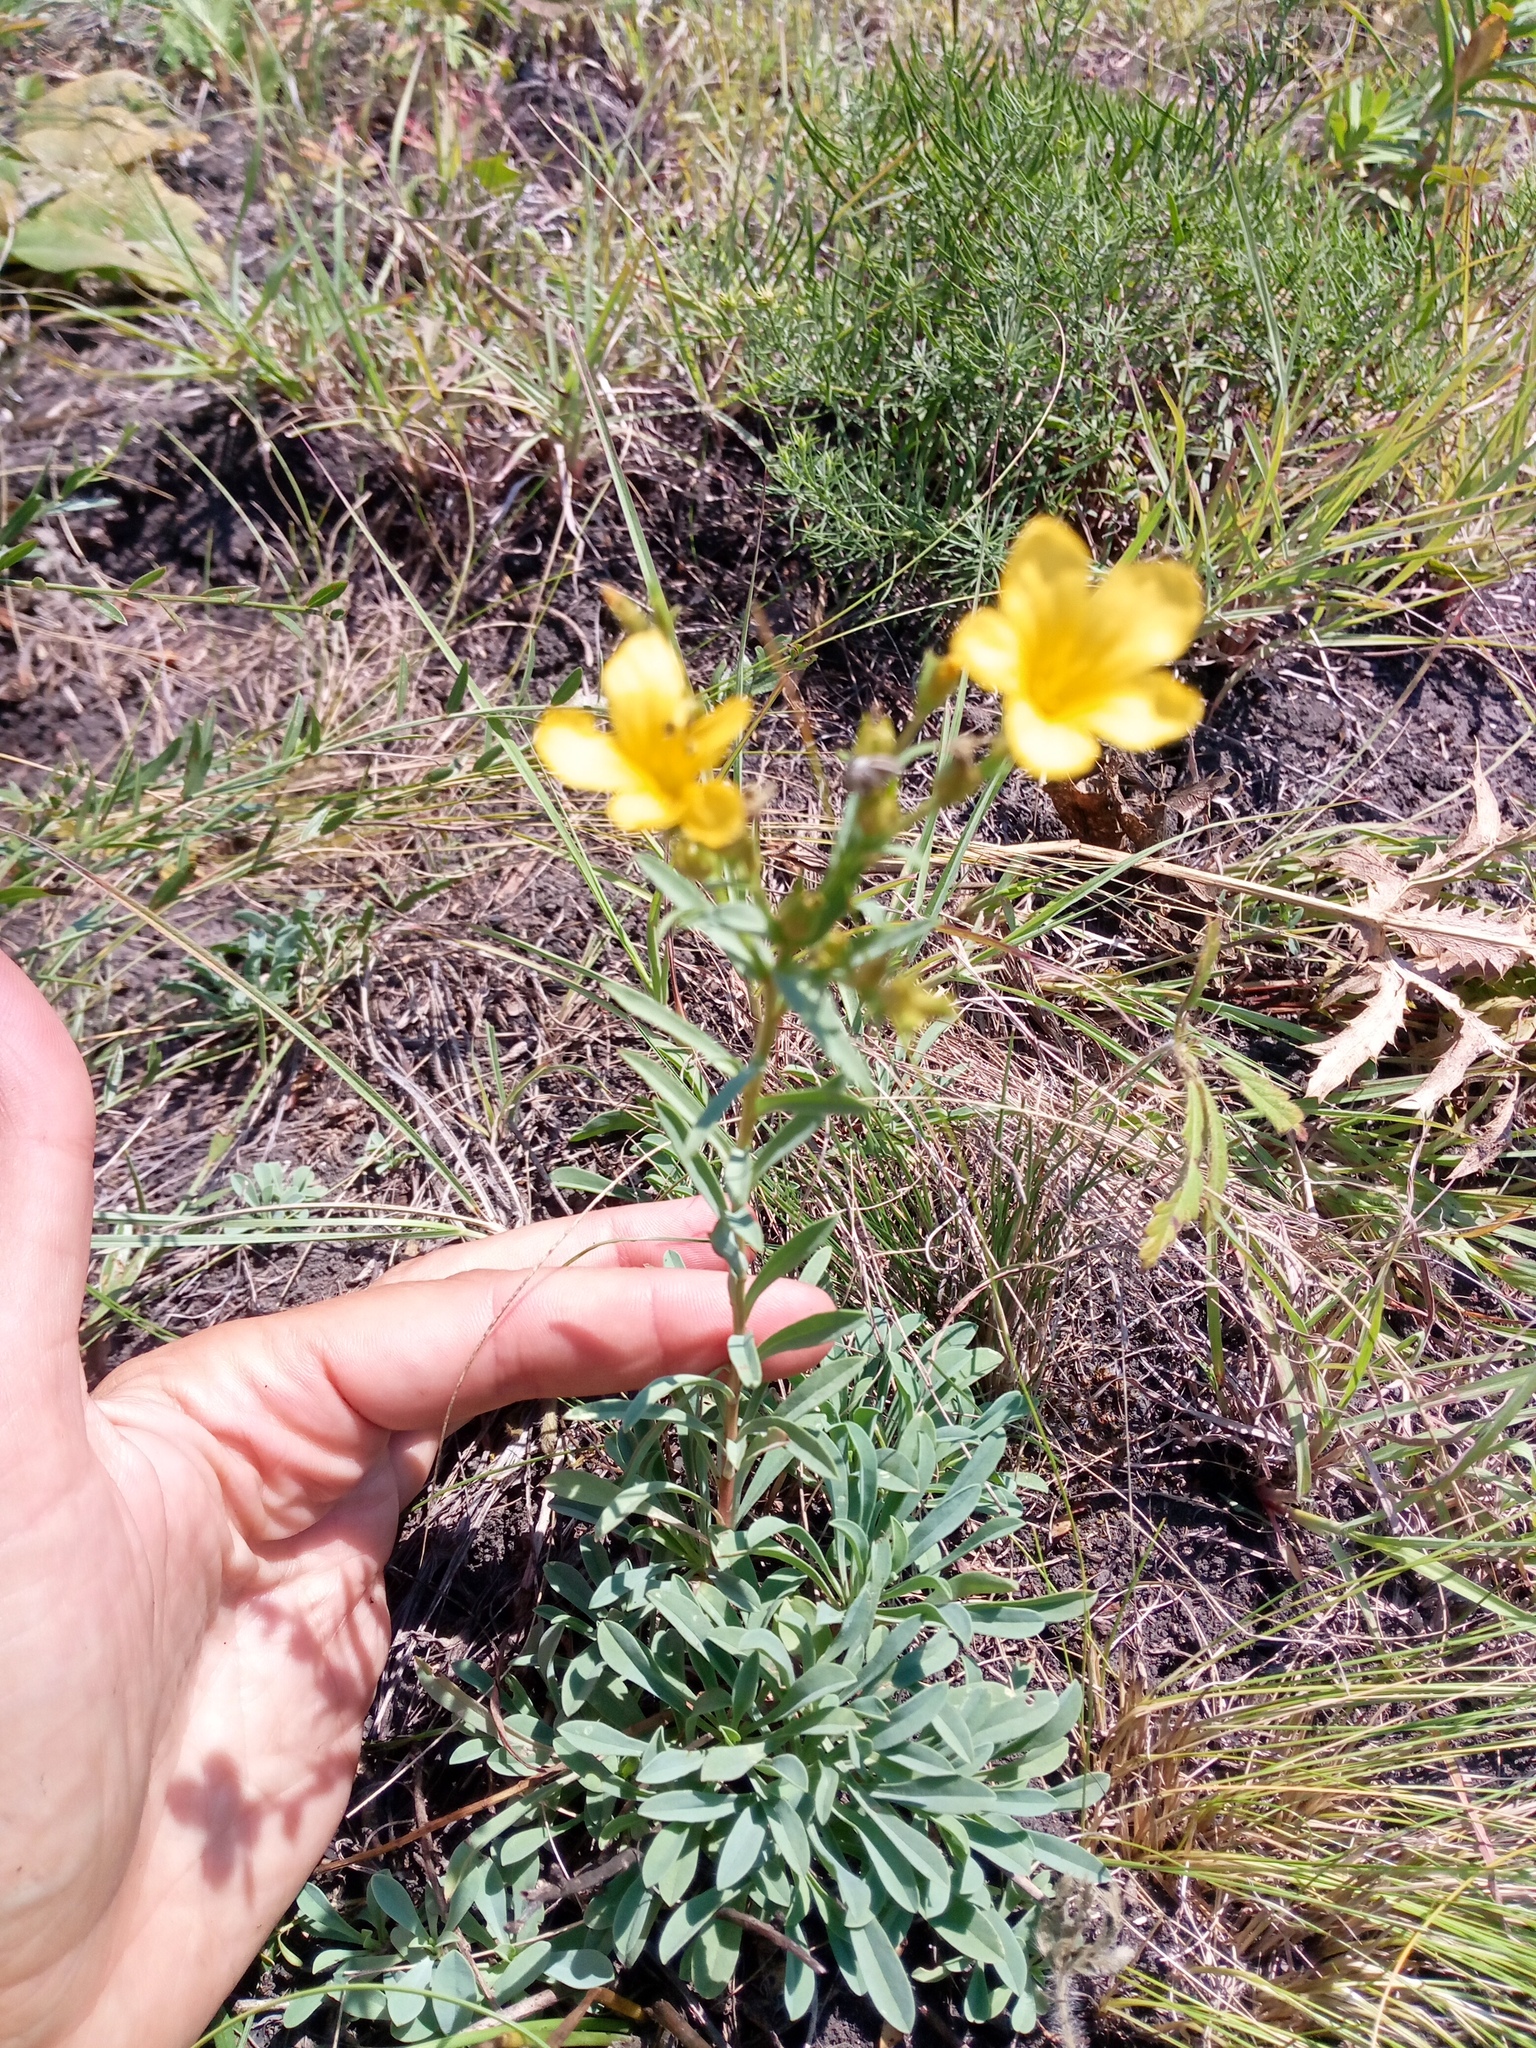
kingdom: Plantae
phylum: Tracheophyta
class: Magnoliopsida
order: Malpighiales
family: Linaceae
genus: Linum
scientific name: Linum flavum
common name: Yellow flax
